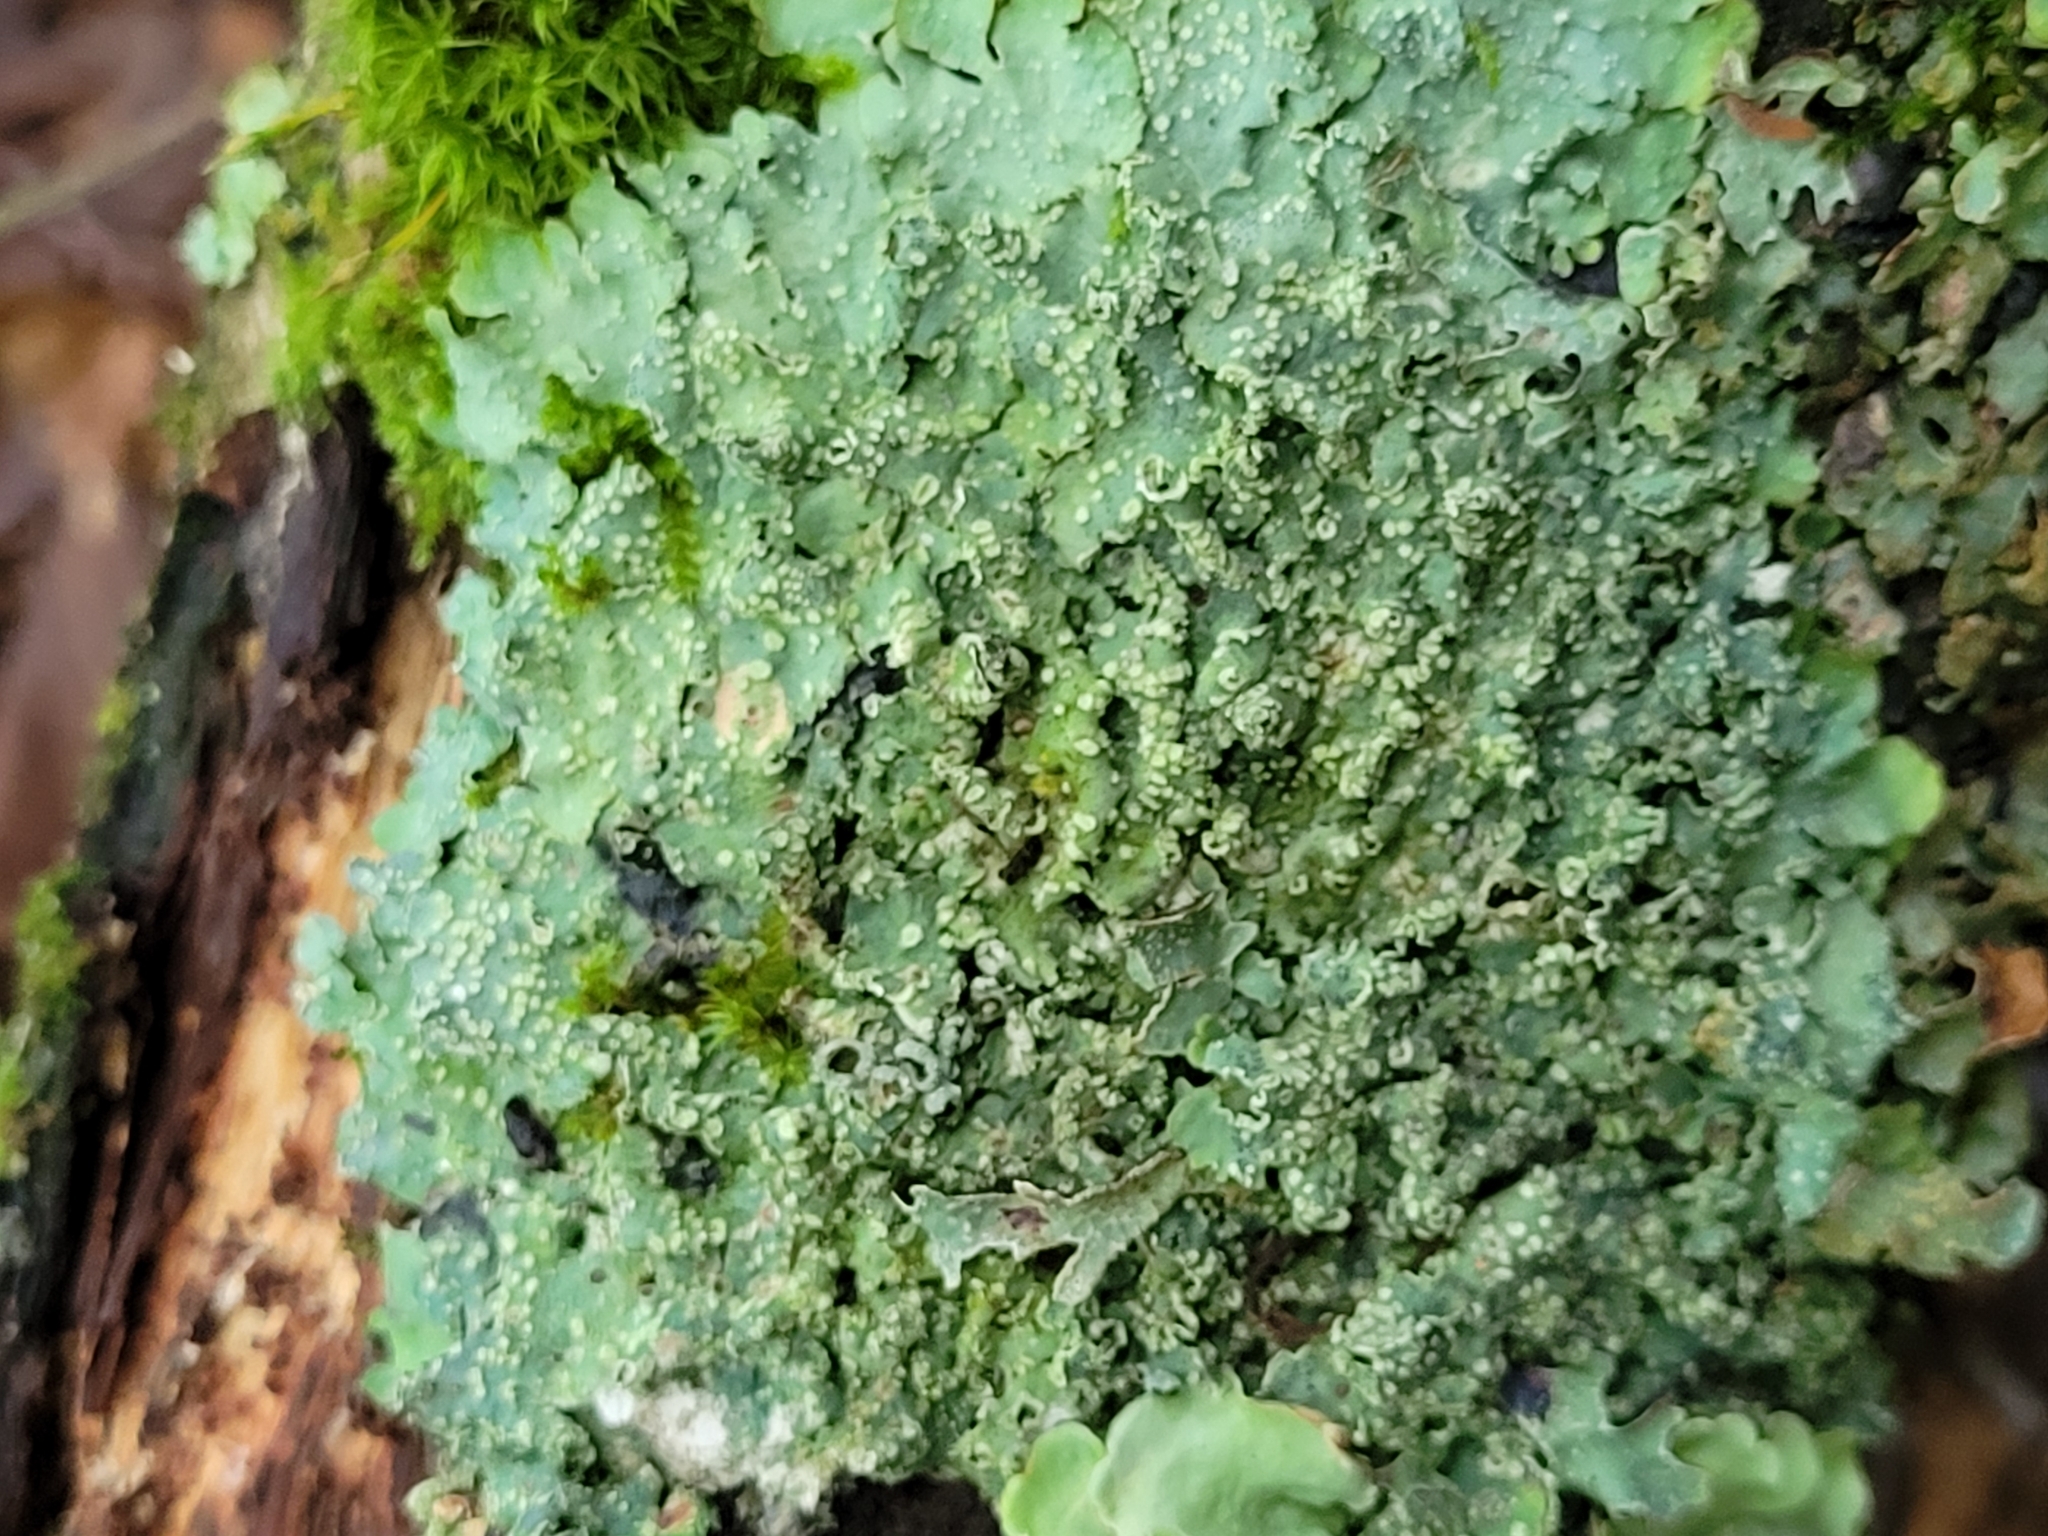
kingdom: Fungi
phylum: Ascomycota
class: Lecanoromycetes
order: Lecanorales
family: Parmeliaceae
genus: Punctelia
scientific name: Punctelia jeckeri
